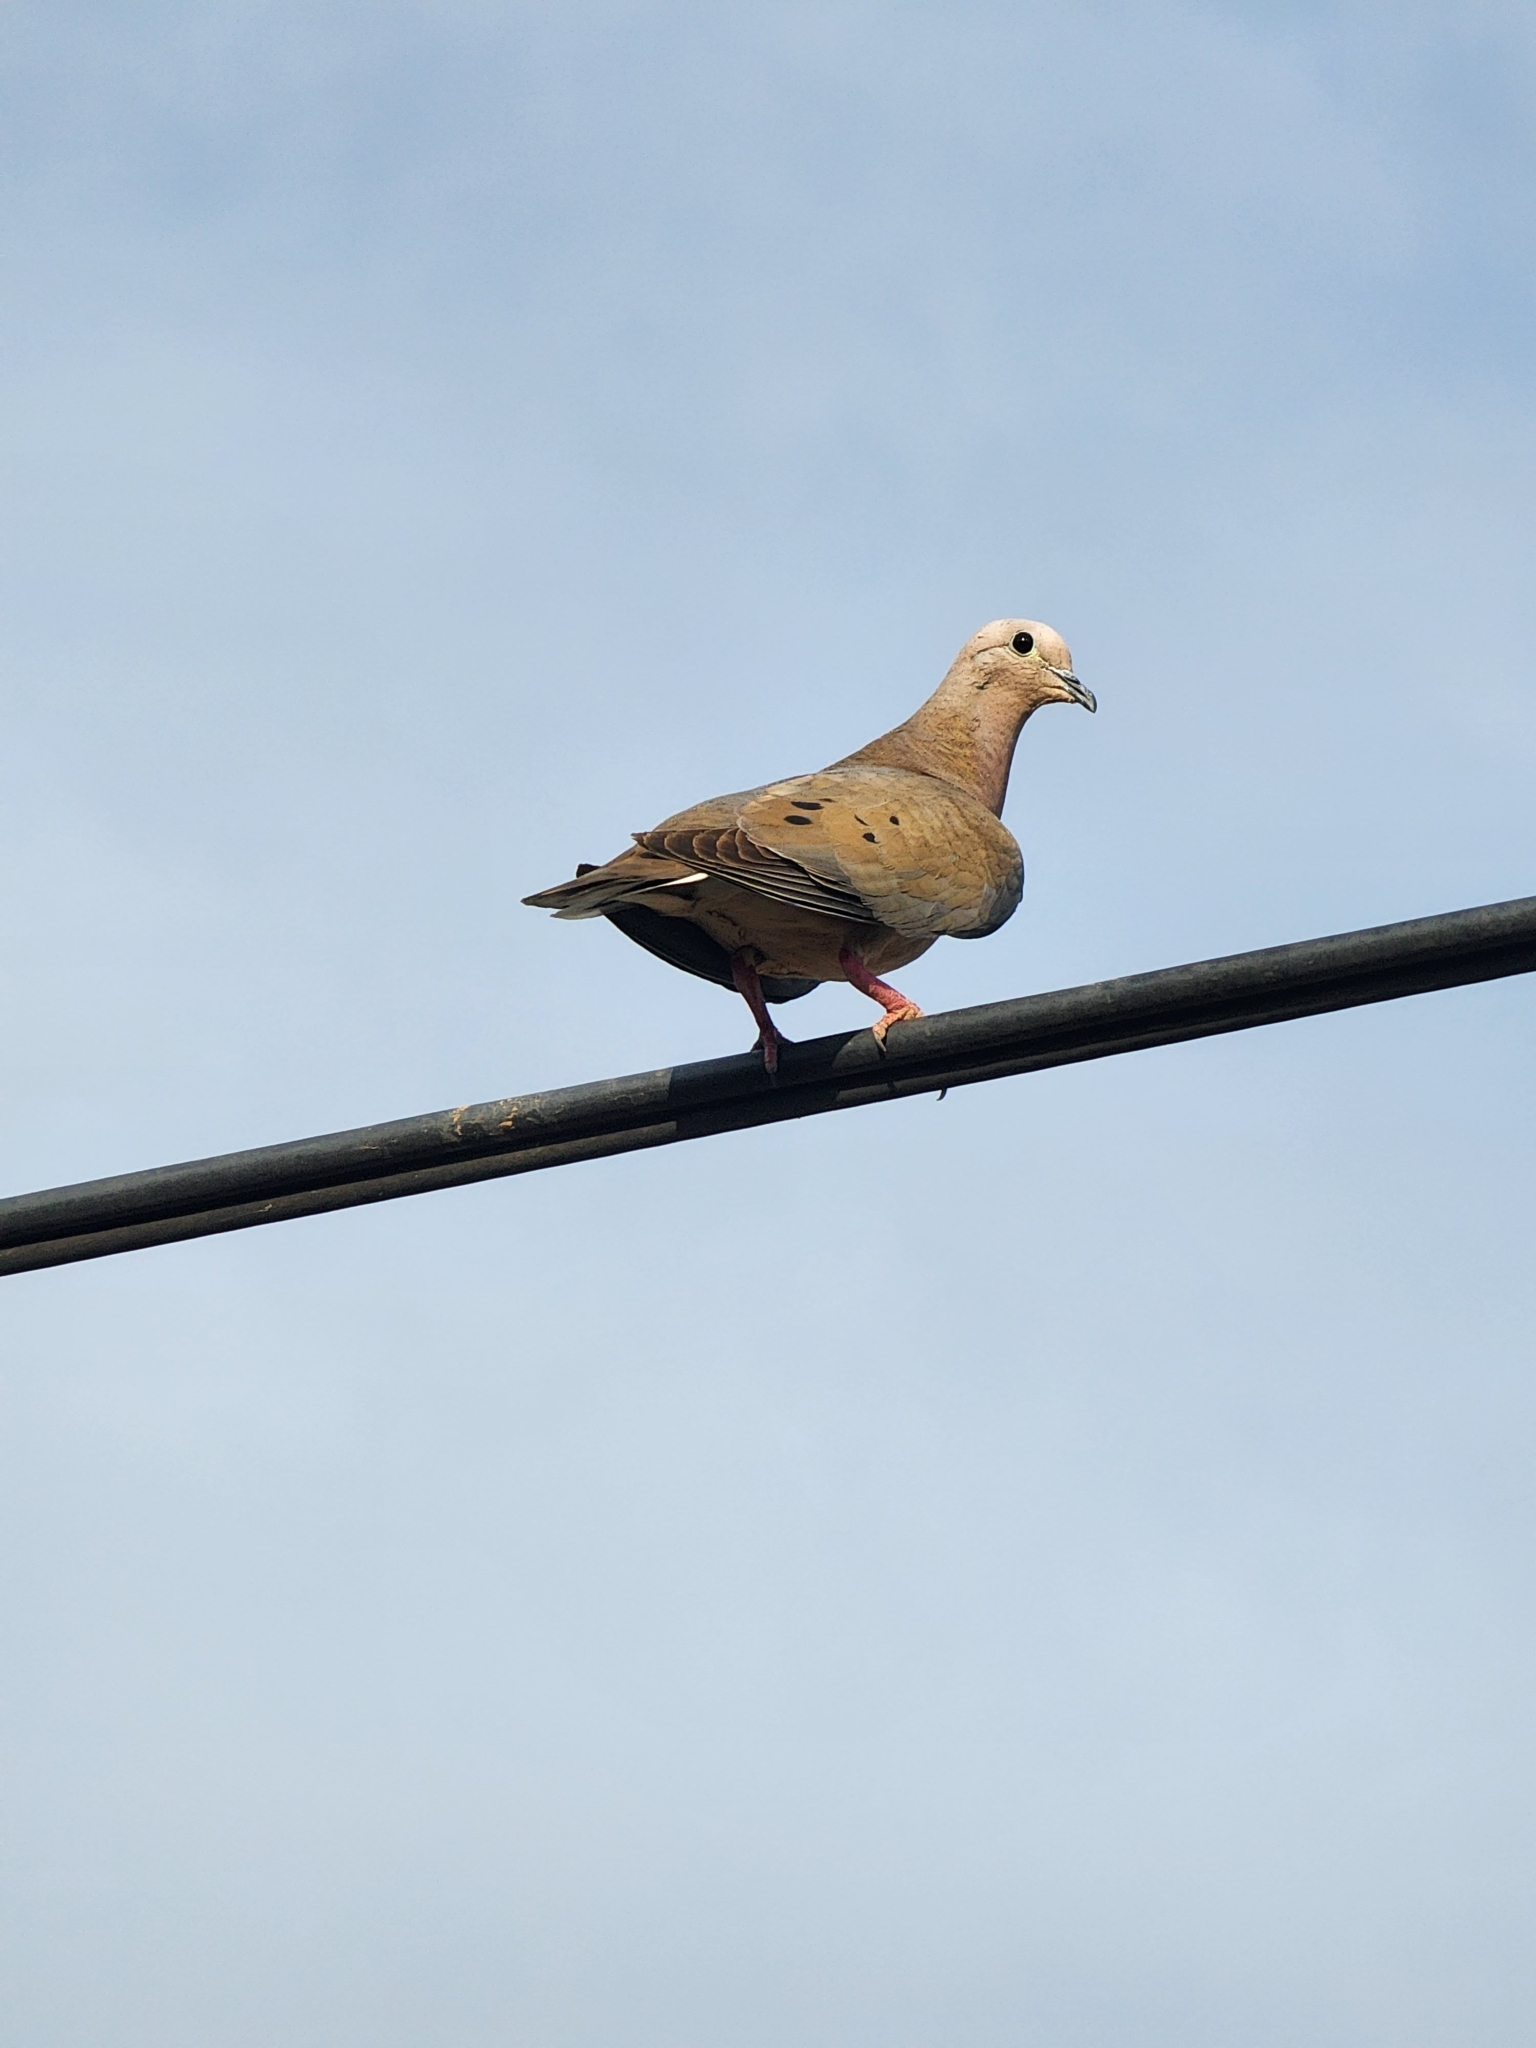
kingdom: Animalia
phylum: Chordata
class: Aves
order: Columbiformes
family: Columbidae
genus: Zenaida
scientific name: Zenaida auriculata
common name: Eared dove
